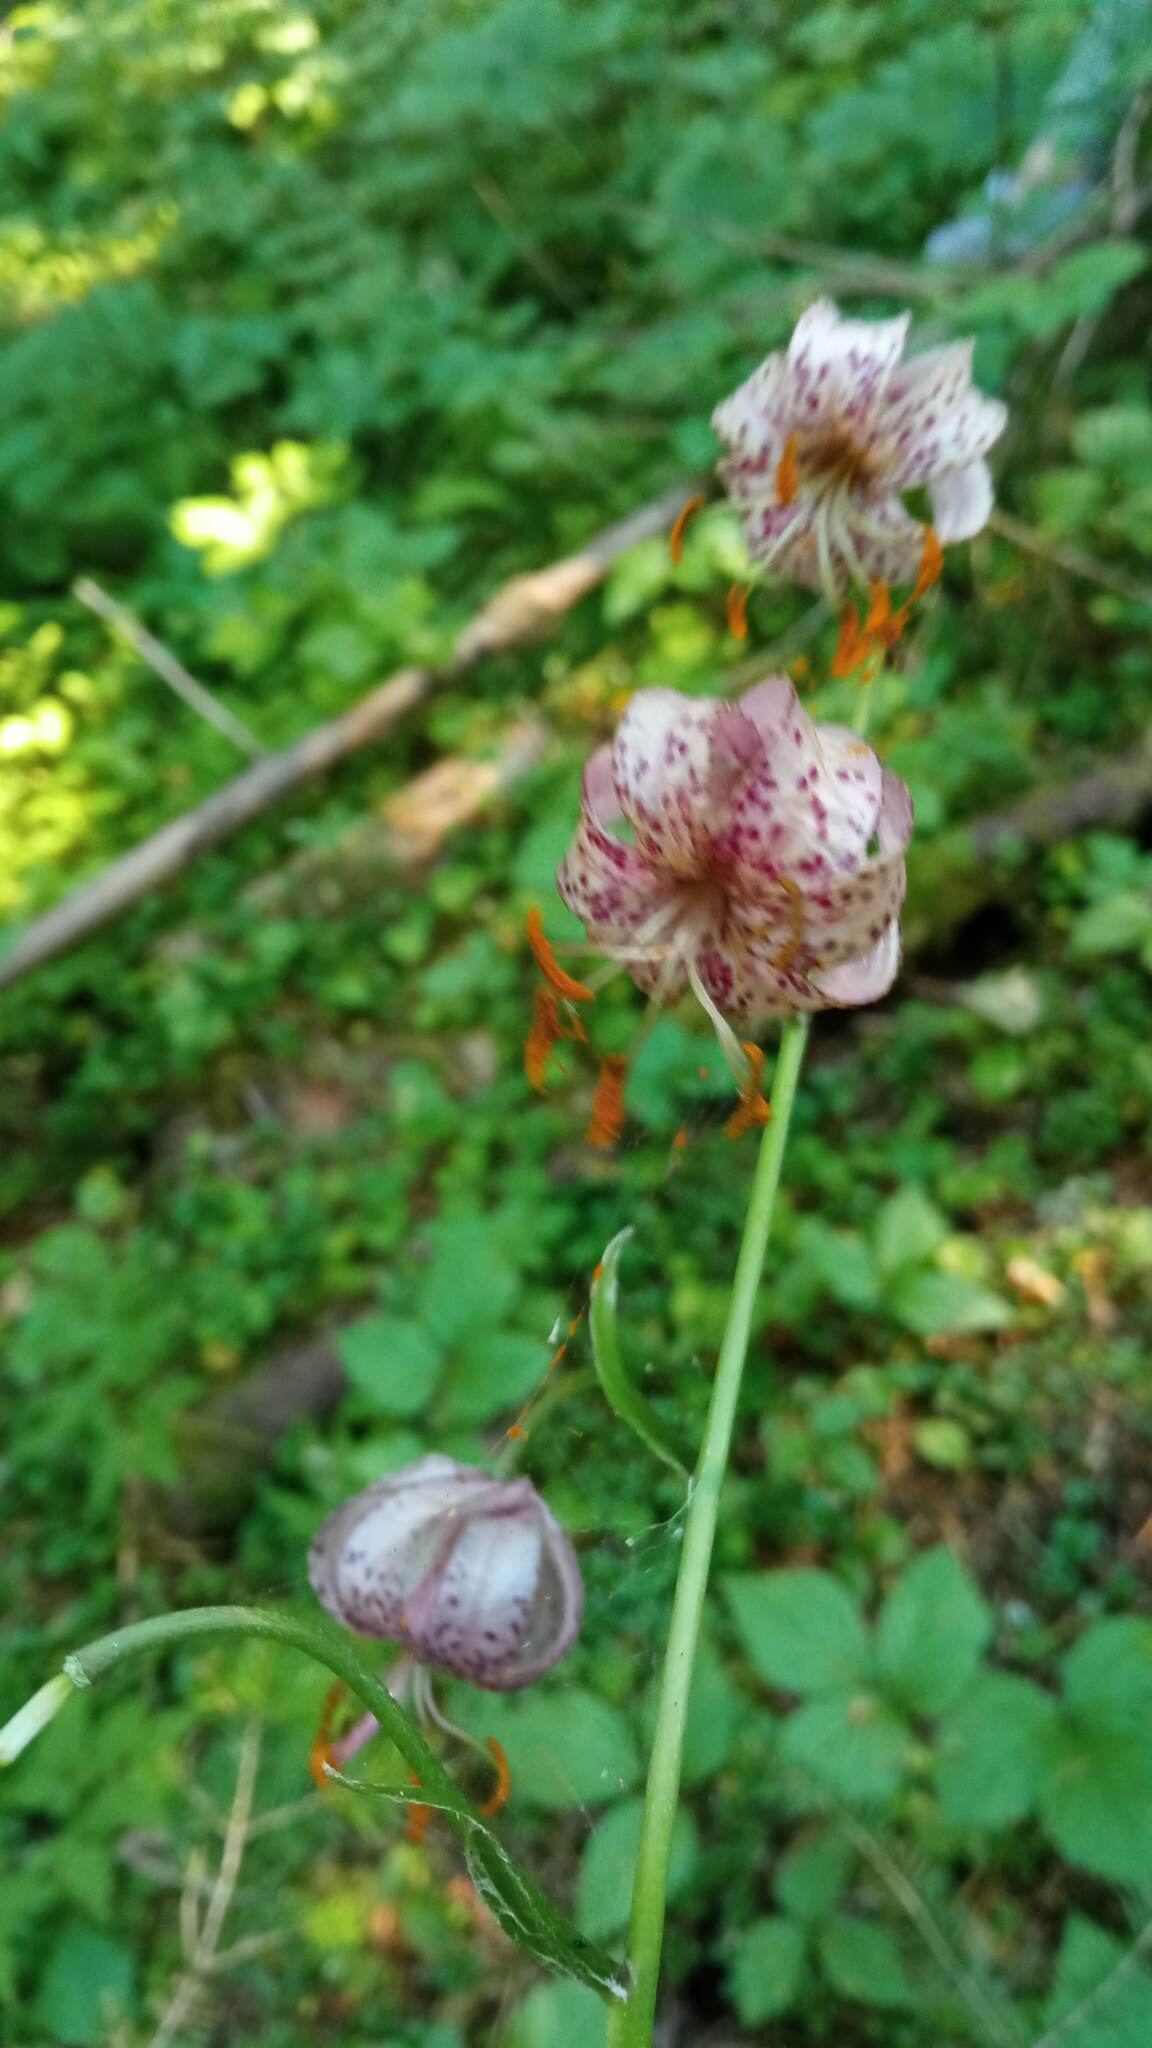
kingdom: Plantae
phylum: Tracheophyta
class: Liliopsida
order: Liliales
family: Liliaceae
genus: Lilium
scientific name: Lilium martagon
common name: Martagon lily
